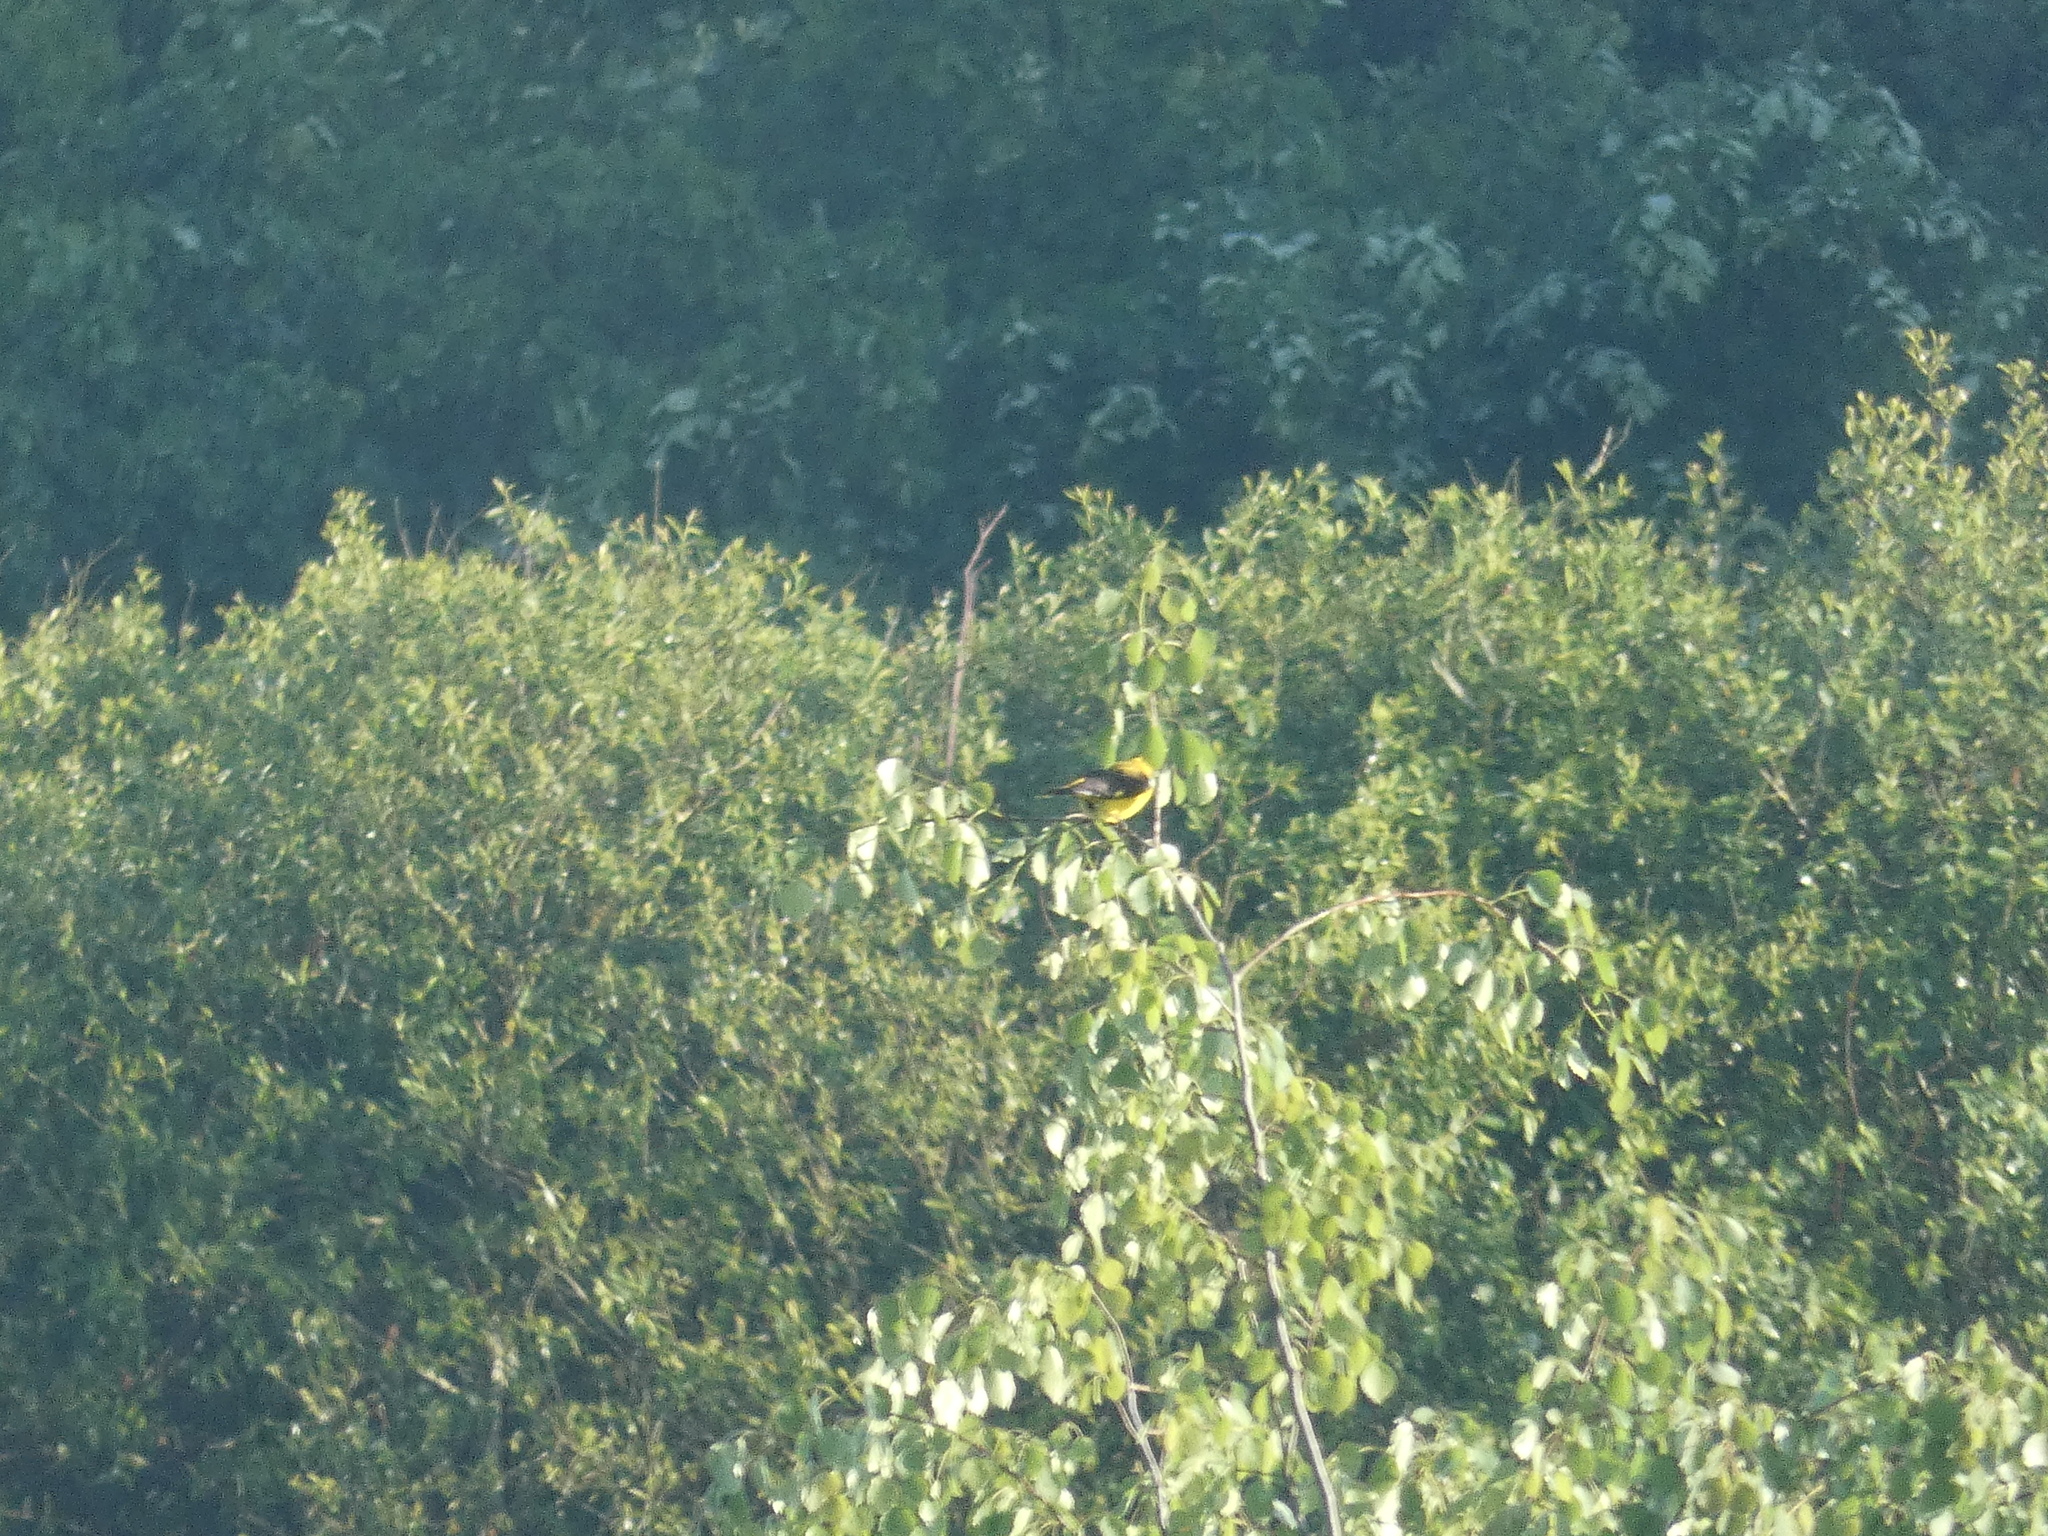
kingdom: Animalia
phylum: Chordata
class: Aves
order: Passeriformes
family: Oriolidae
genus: Oriolus
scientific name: Oriolus oriolus
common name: Eurasian golden oriole
